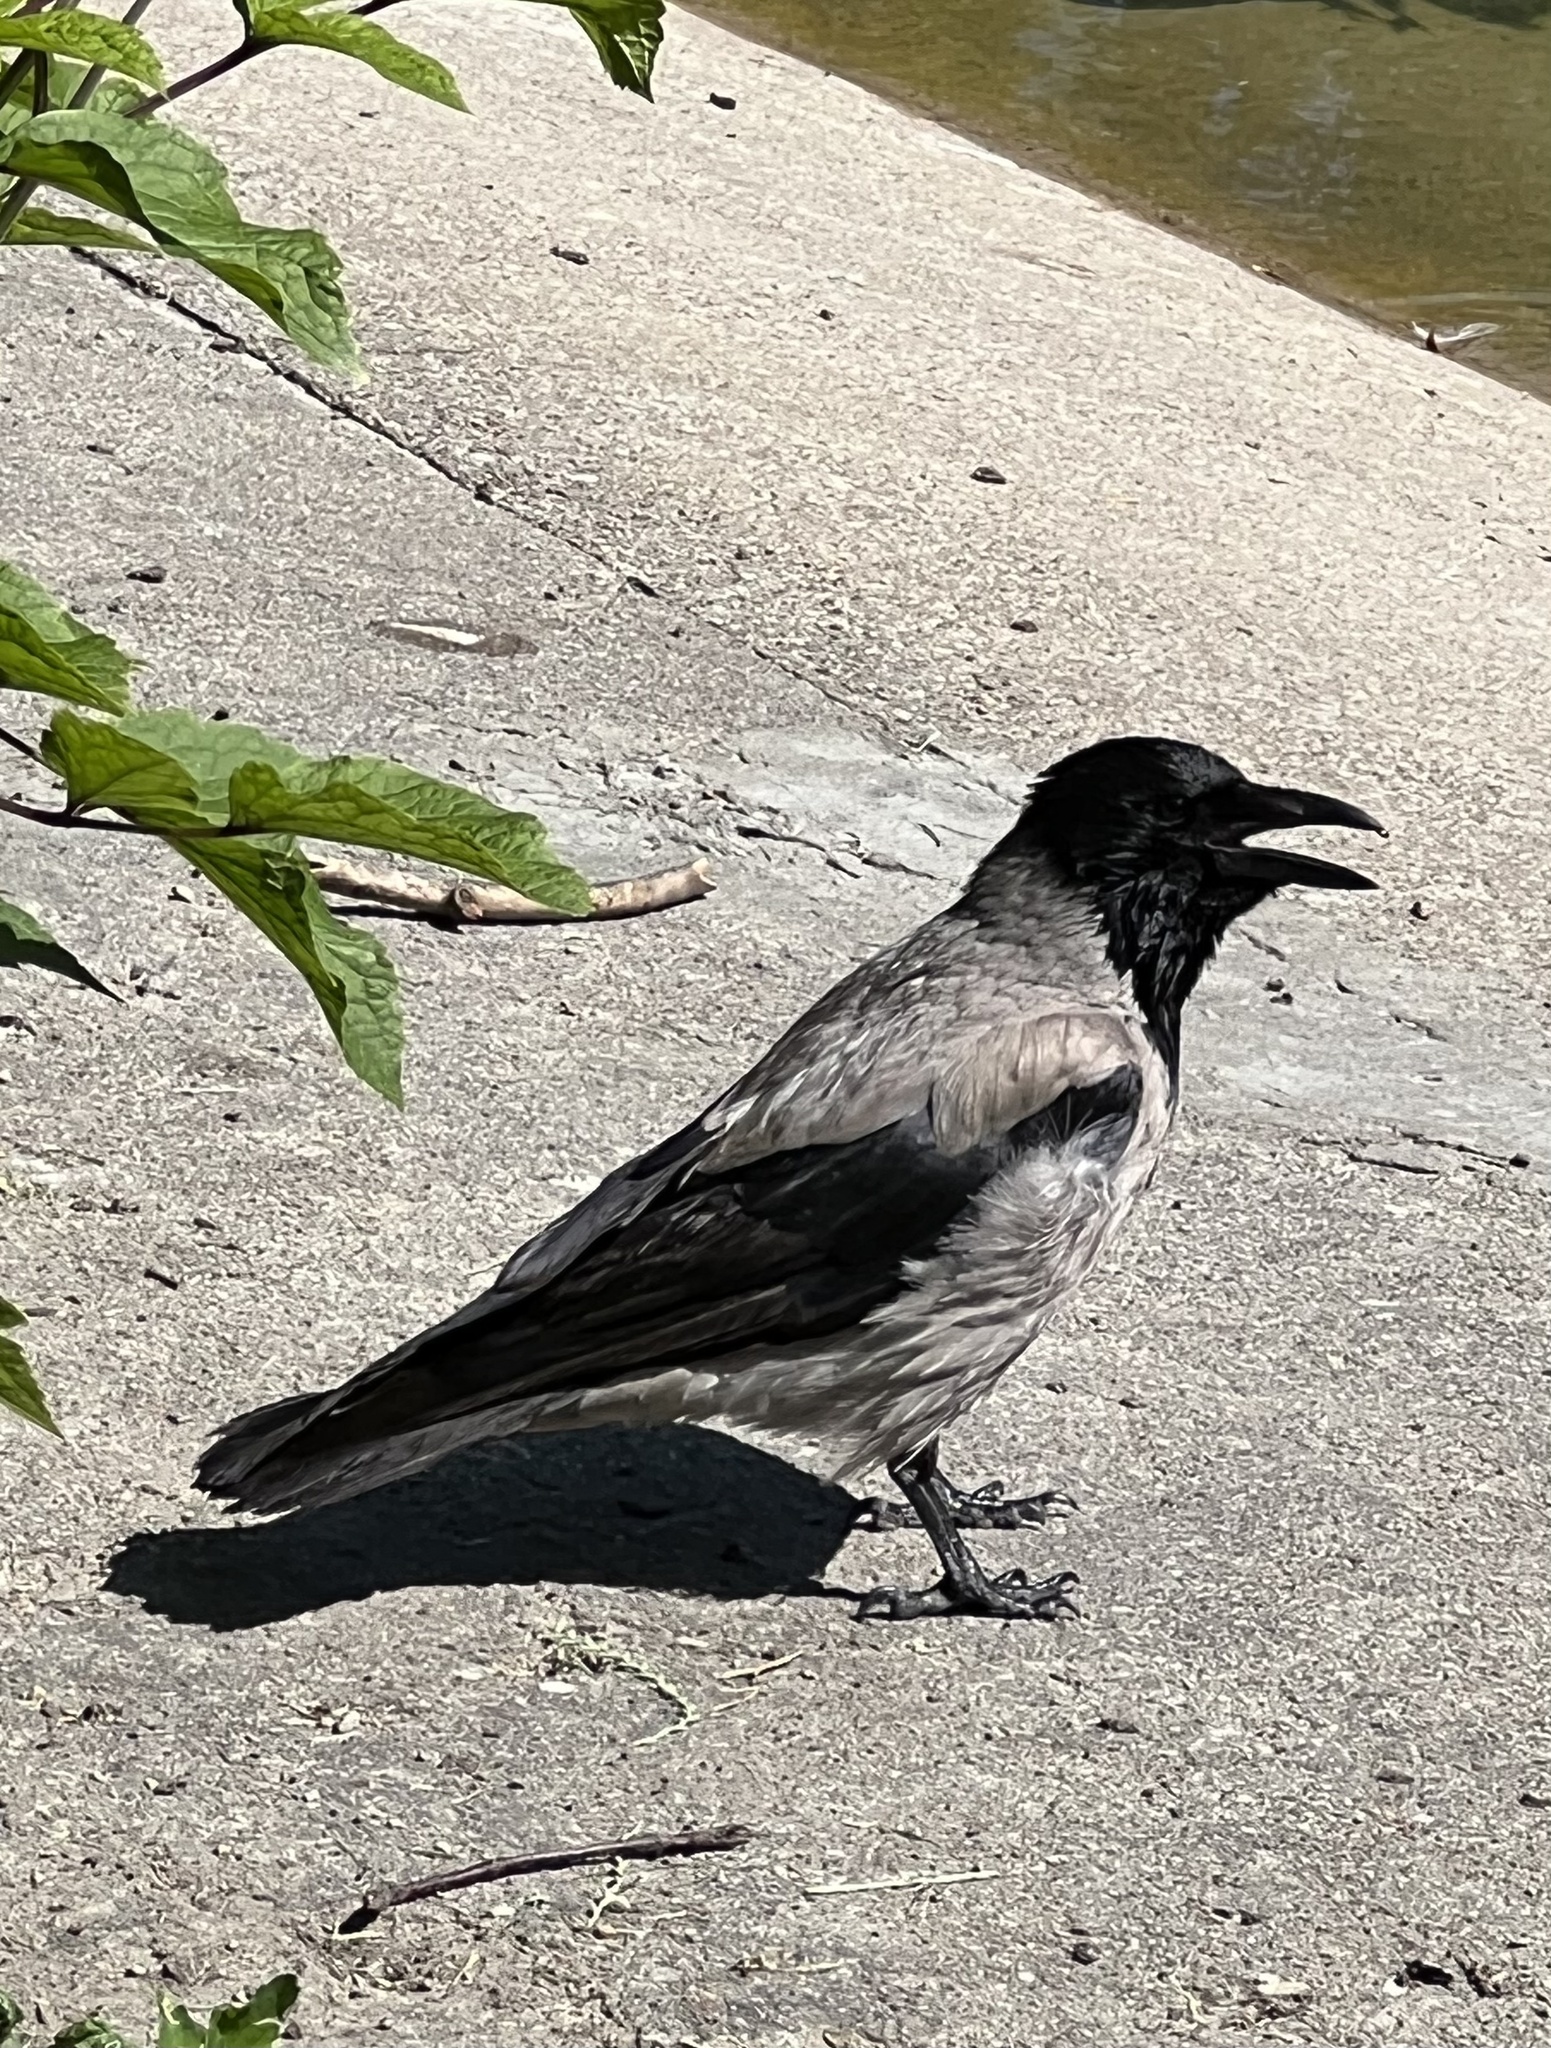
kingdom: Animalia
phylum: Chordata
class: Aves
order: Passeriformes
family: Corvidae
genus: Corvus
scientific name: Corvus cornix
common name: Hooded crow
